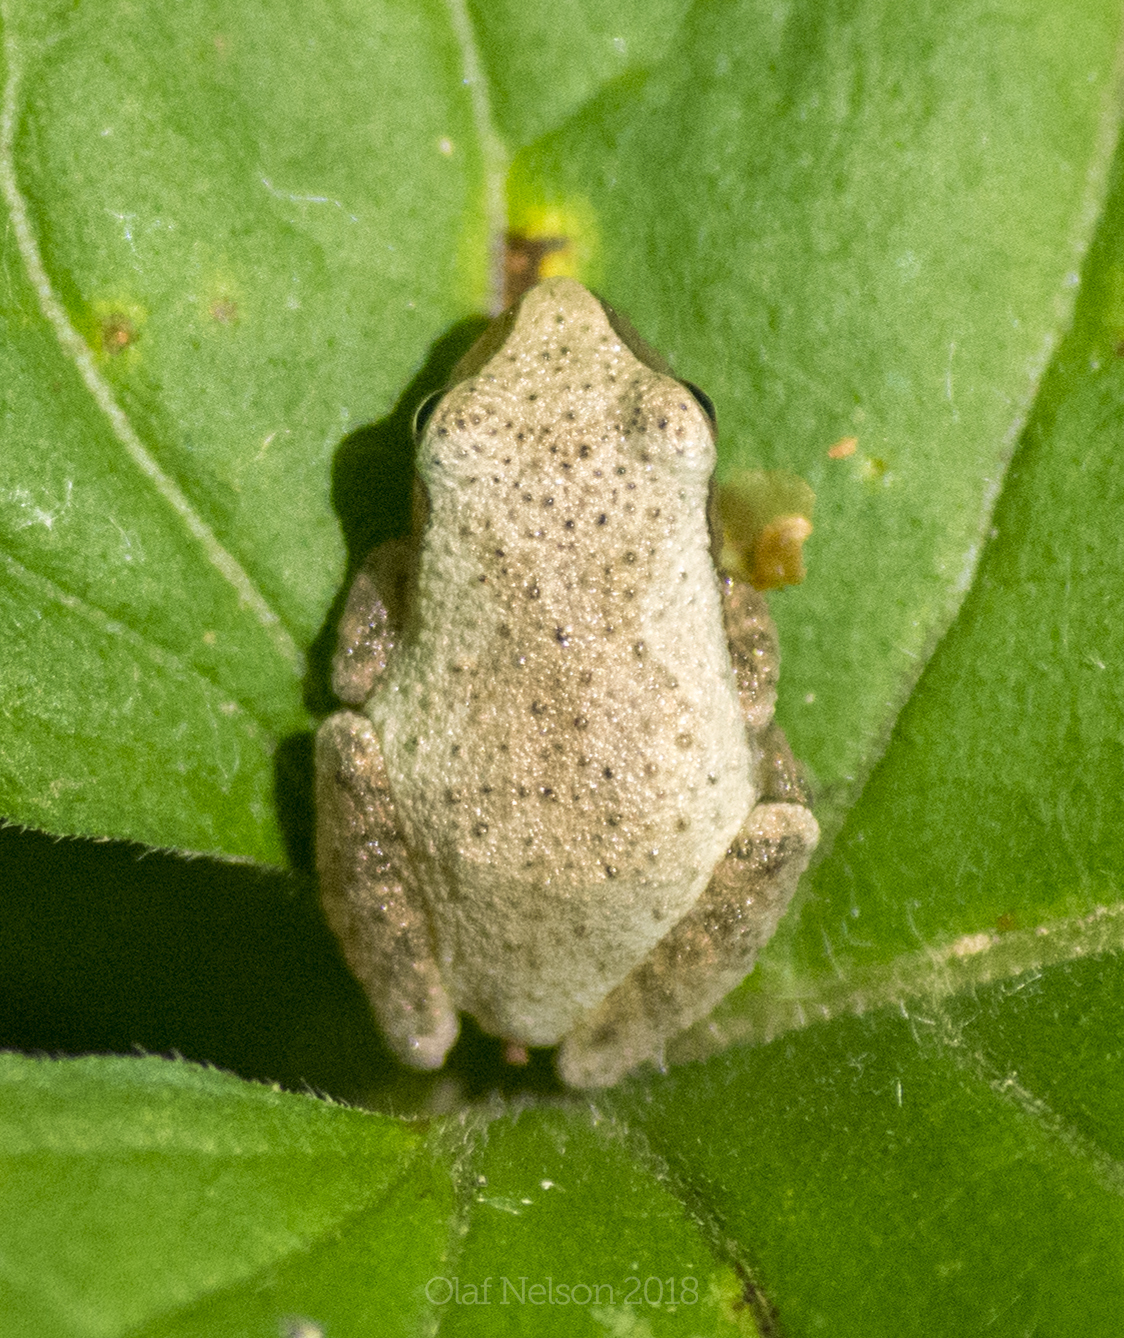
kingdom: Animalia
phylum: Chordata
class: Amphibia
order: Anura
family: Hylidae
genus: Pseudacris
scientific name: Pseudacris crucifer
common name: Spring peeper
